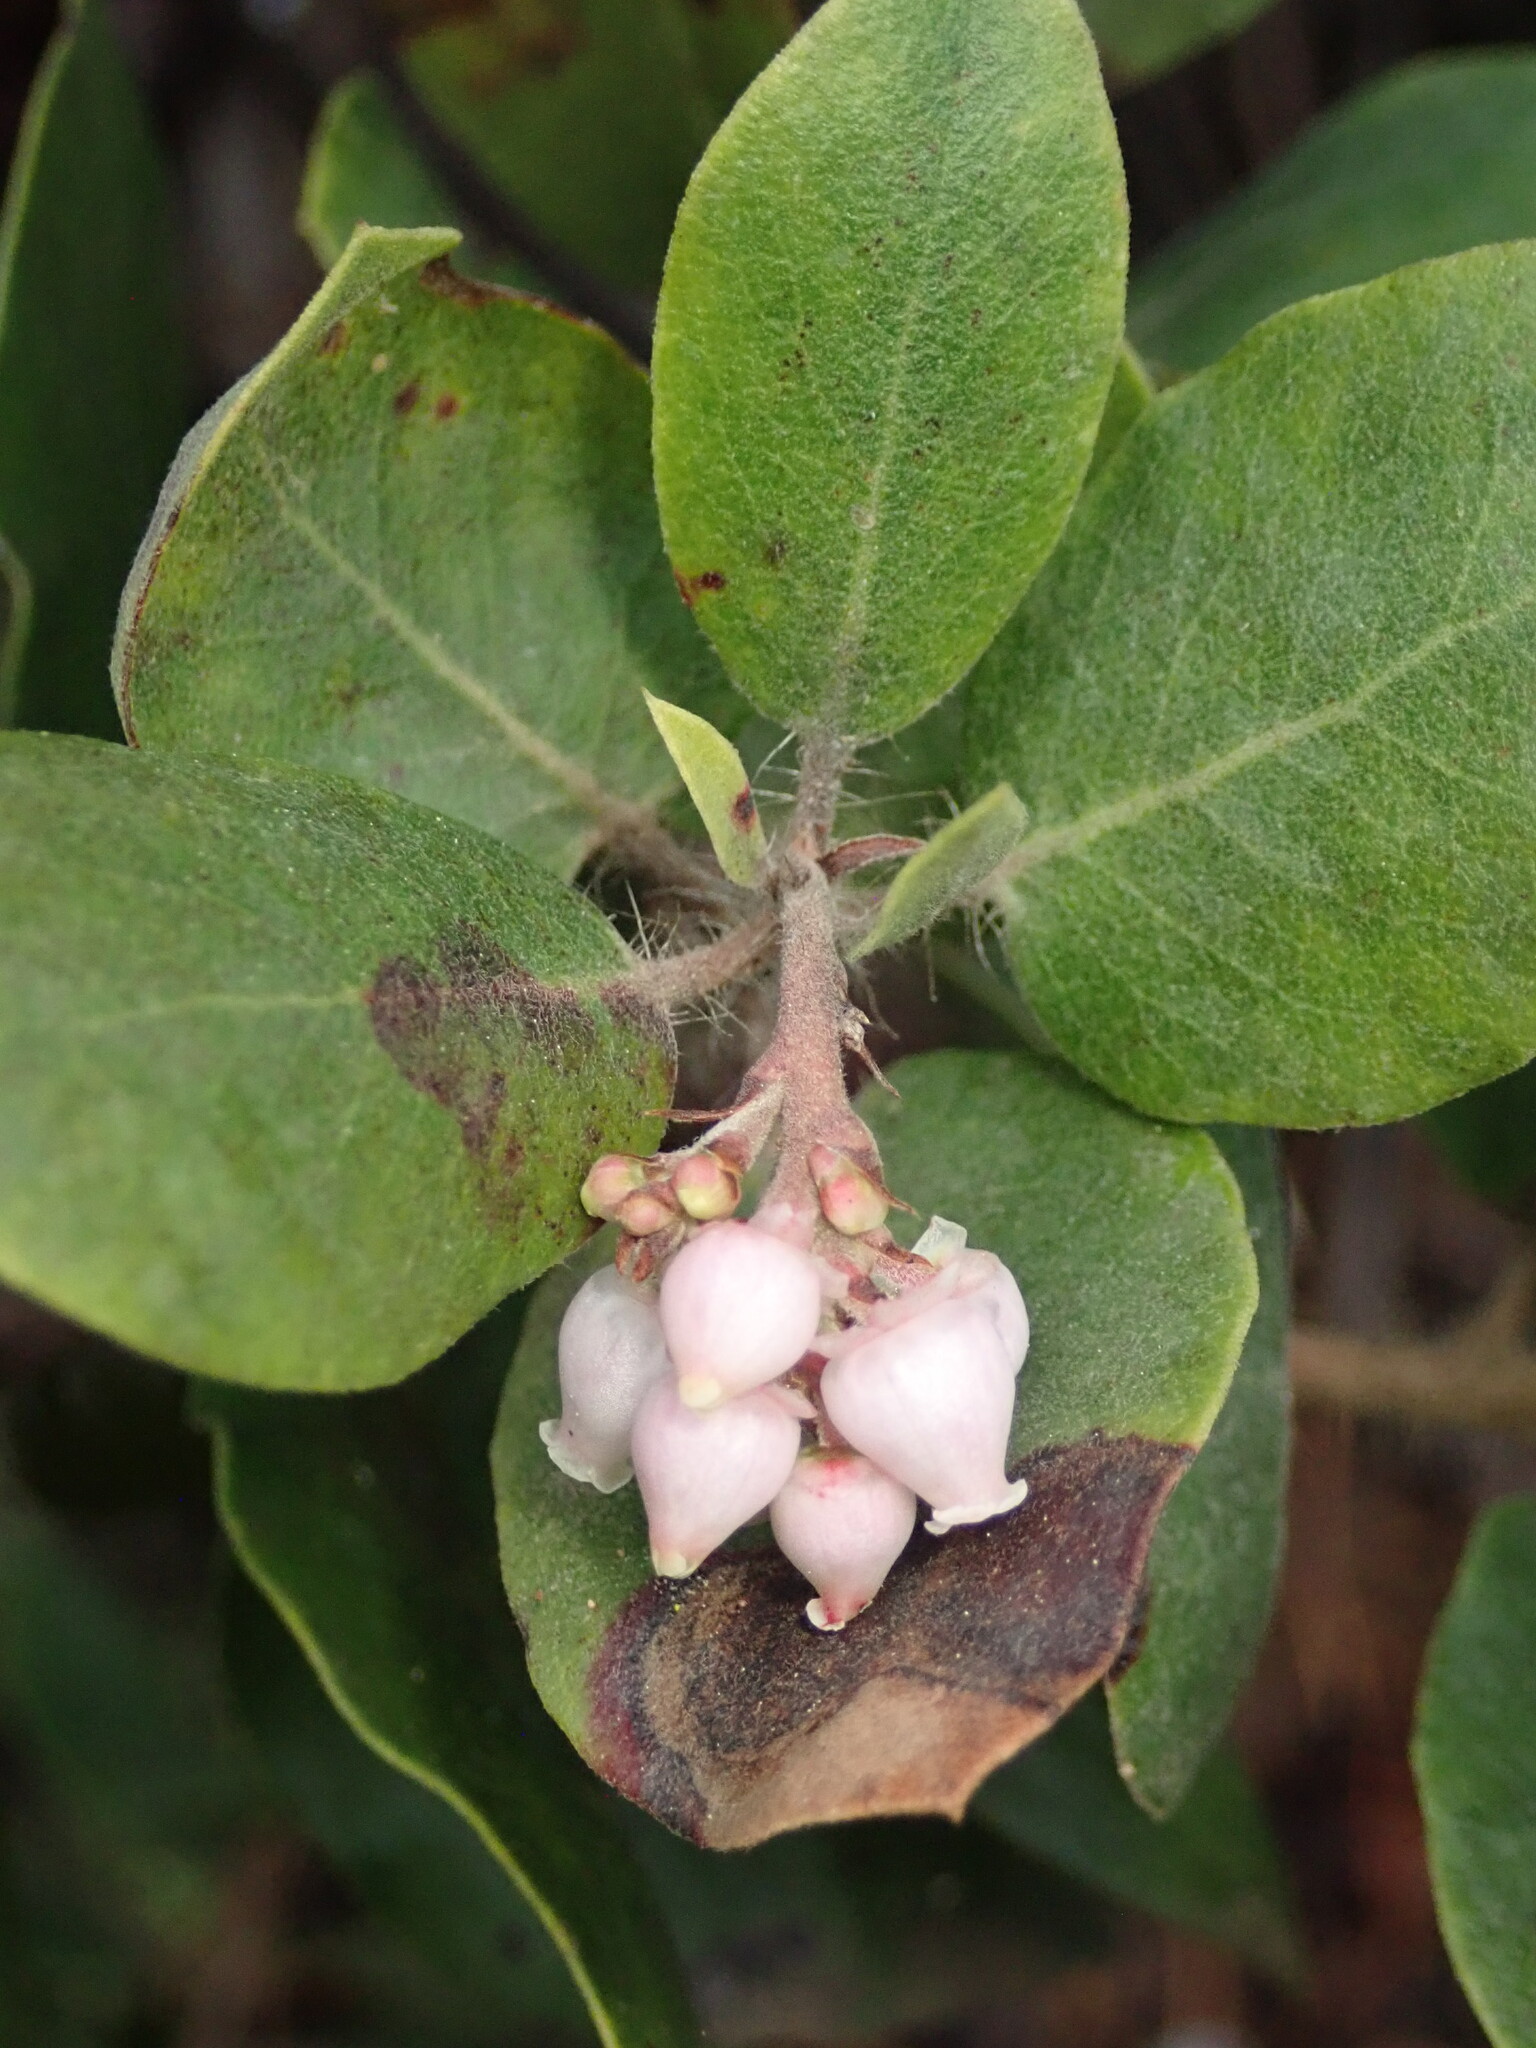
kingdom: Plantae
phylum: Tracheophyta
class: Magnoliopsida
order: Ericales
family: Ericaceae
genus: Arctostaphylos
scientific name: Arctostaphylos crustacea
